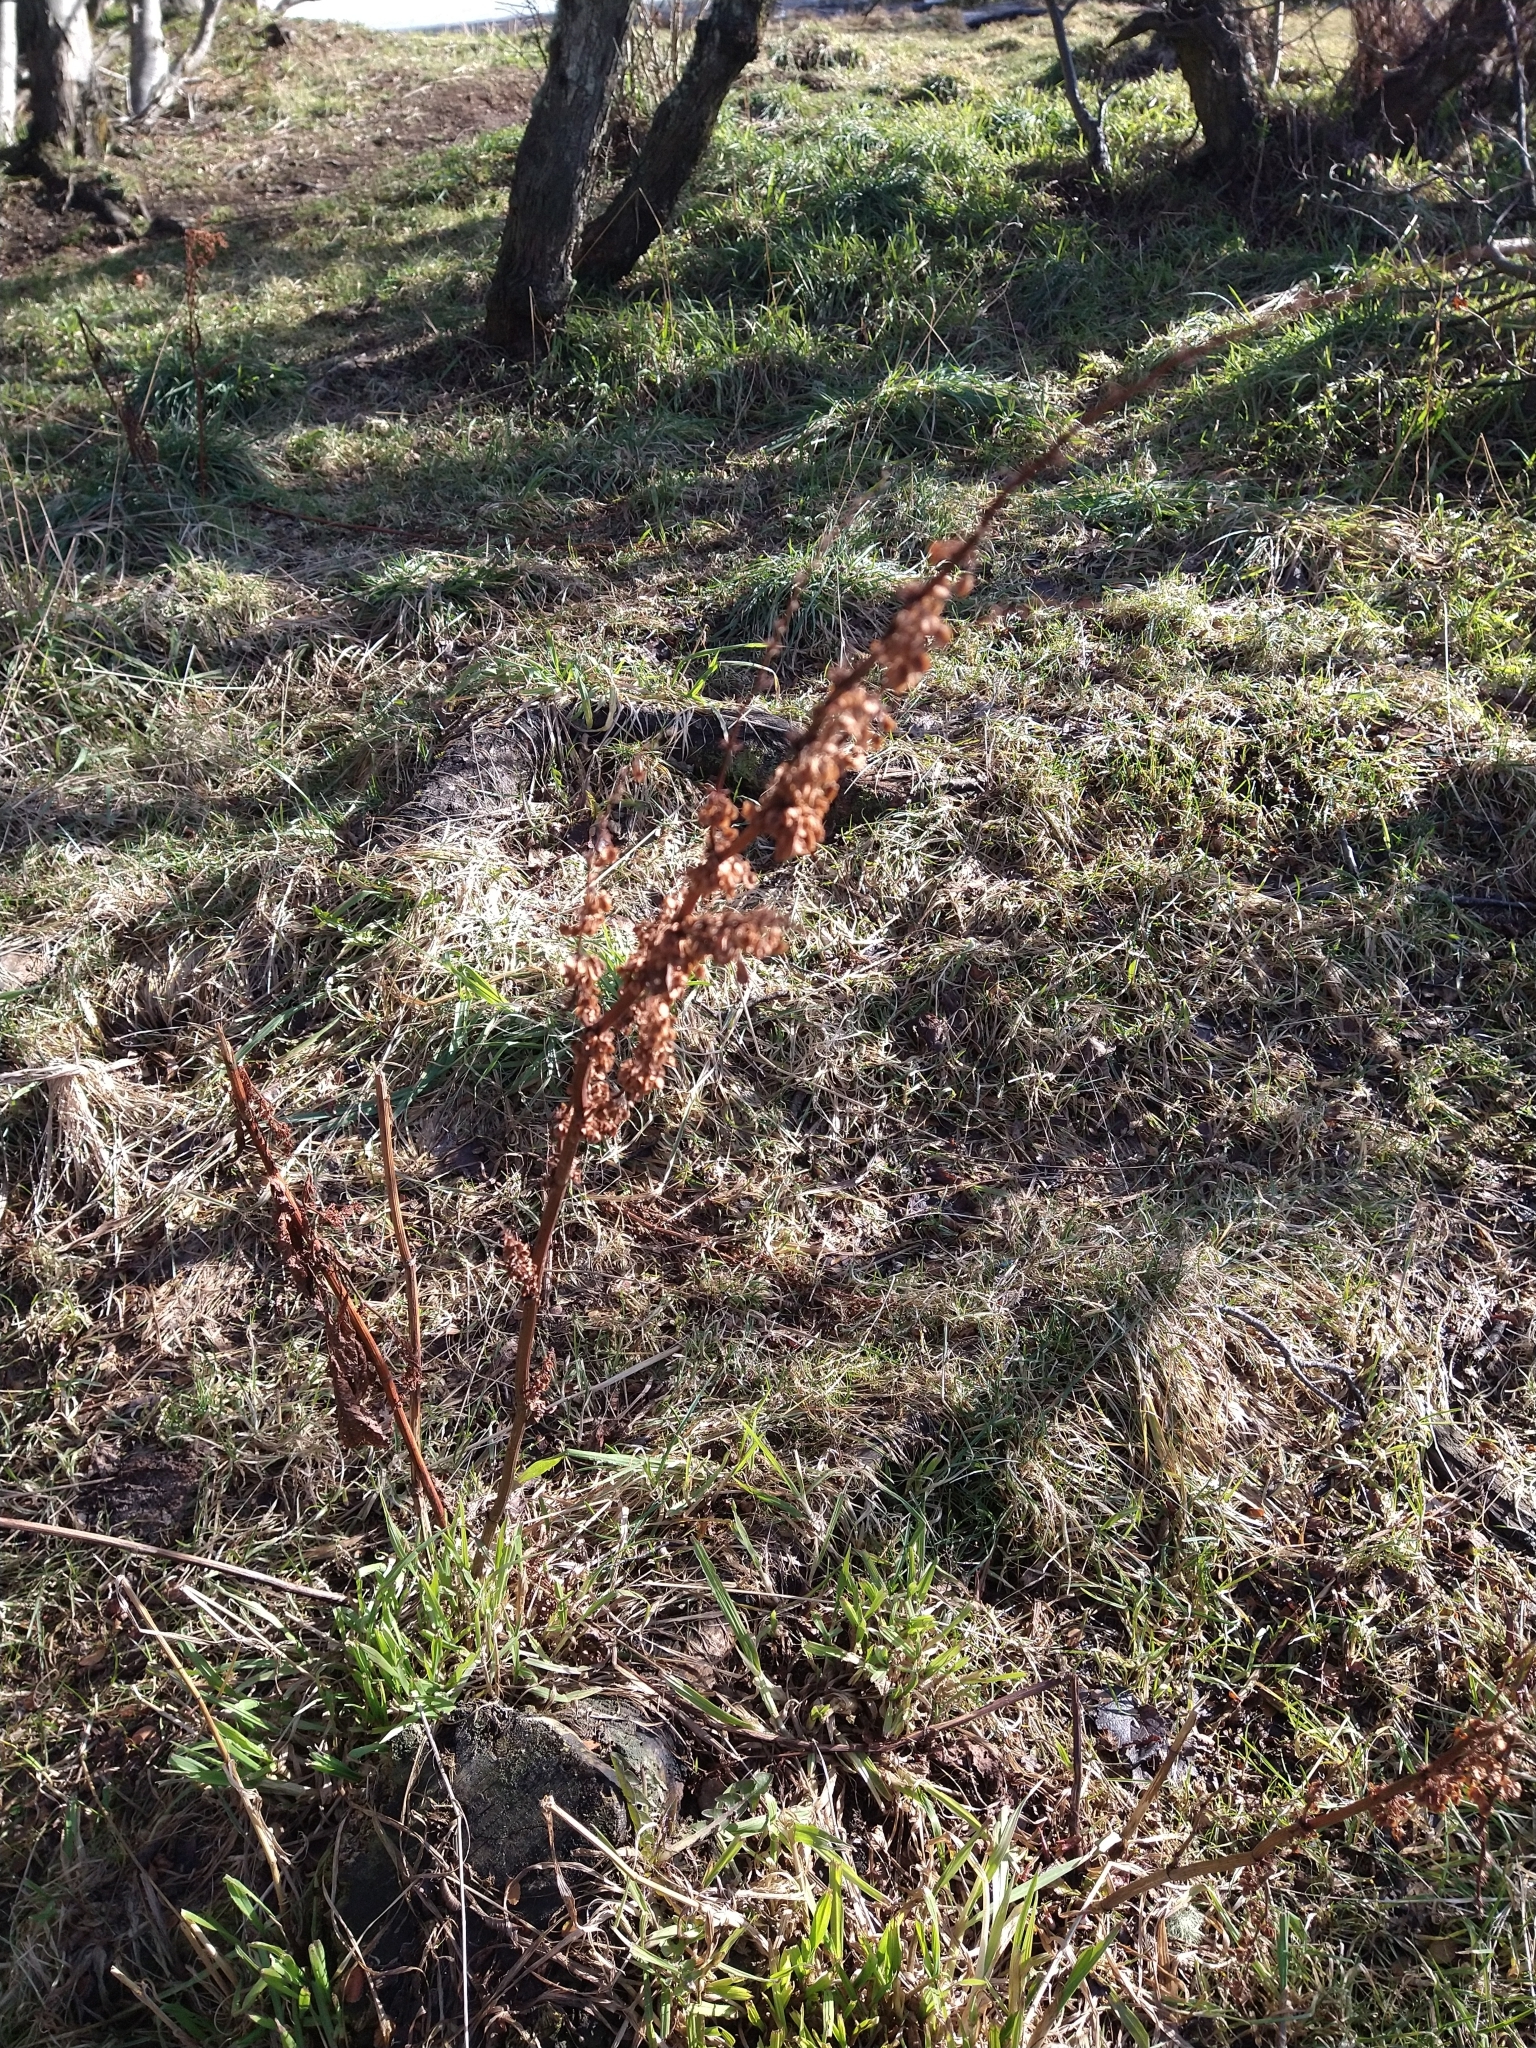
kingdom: Plantae
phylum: Tracheophyta
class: Magnoliopsida
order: Caryophyllales
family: Polygonaceae
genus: Rumex
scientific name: Rumex crispus
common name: Curled dock
